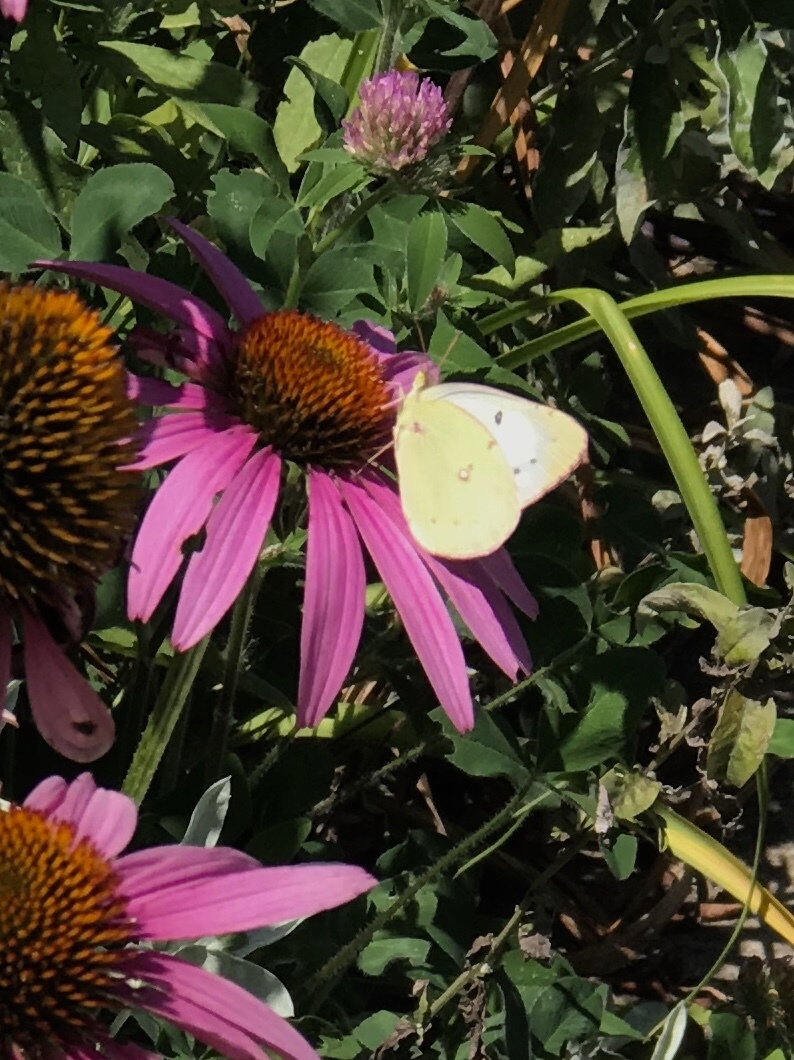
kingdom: Animalia
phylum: Arthropoda
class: Insecta
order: Lepidoptera
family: Pieridae
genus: Colias
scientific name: Colias philodice
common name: Clouded sulphur
